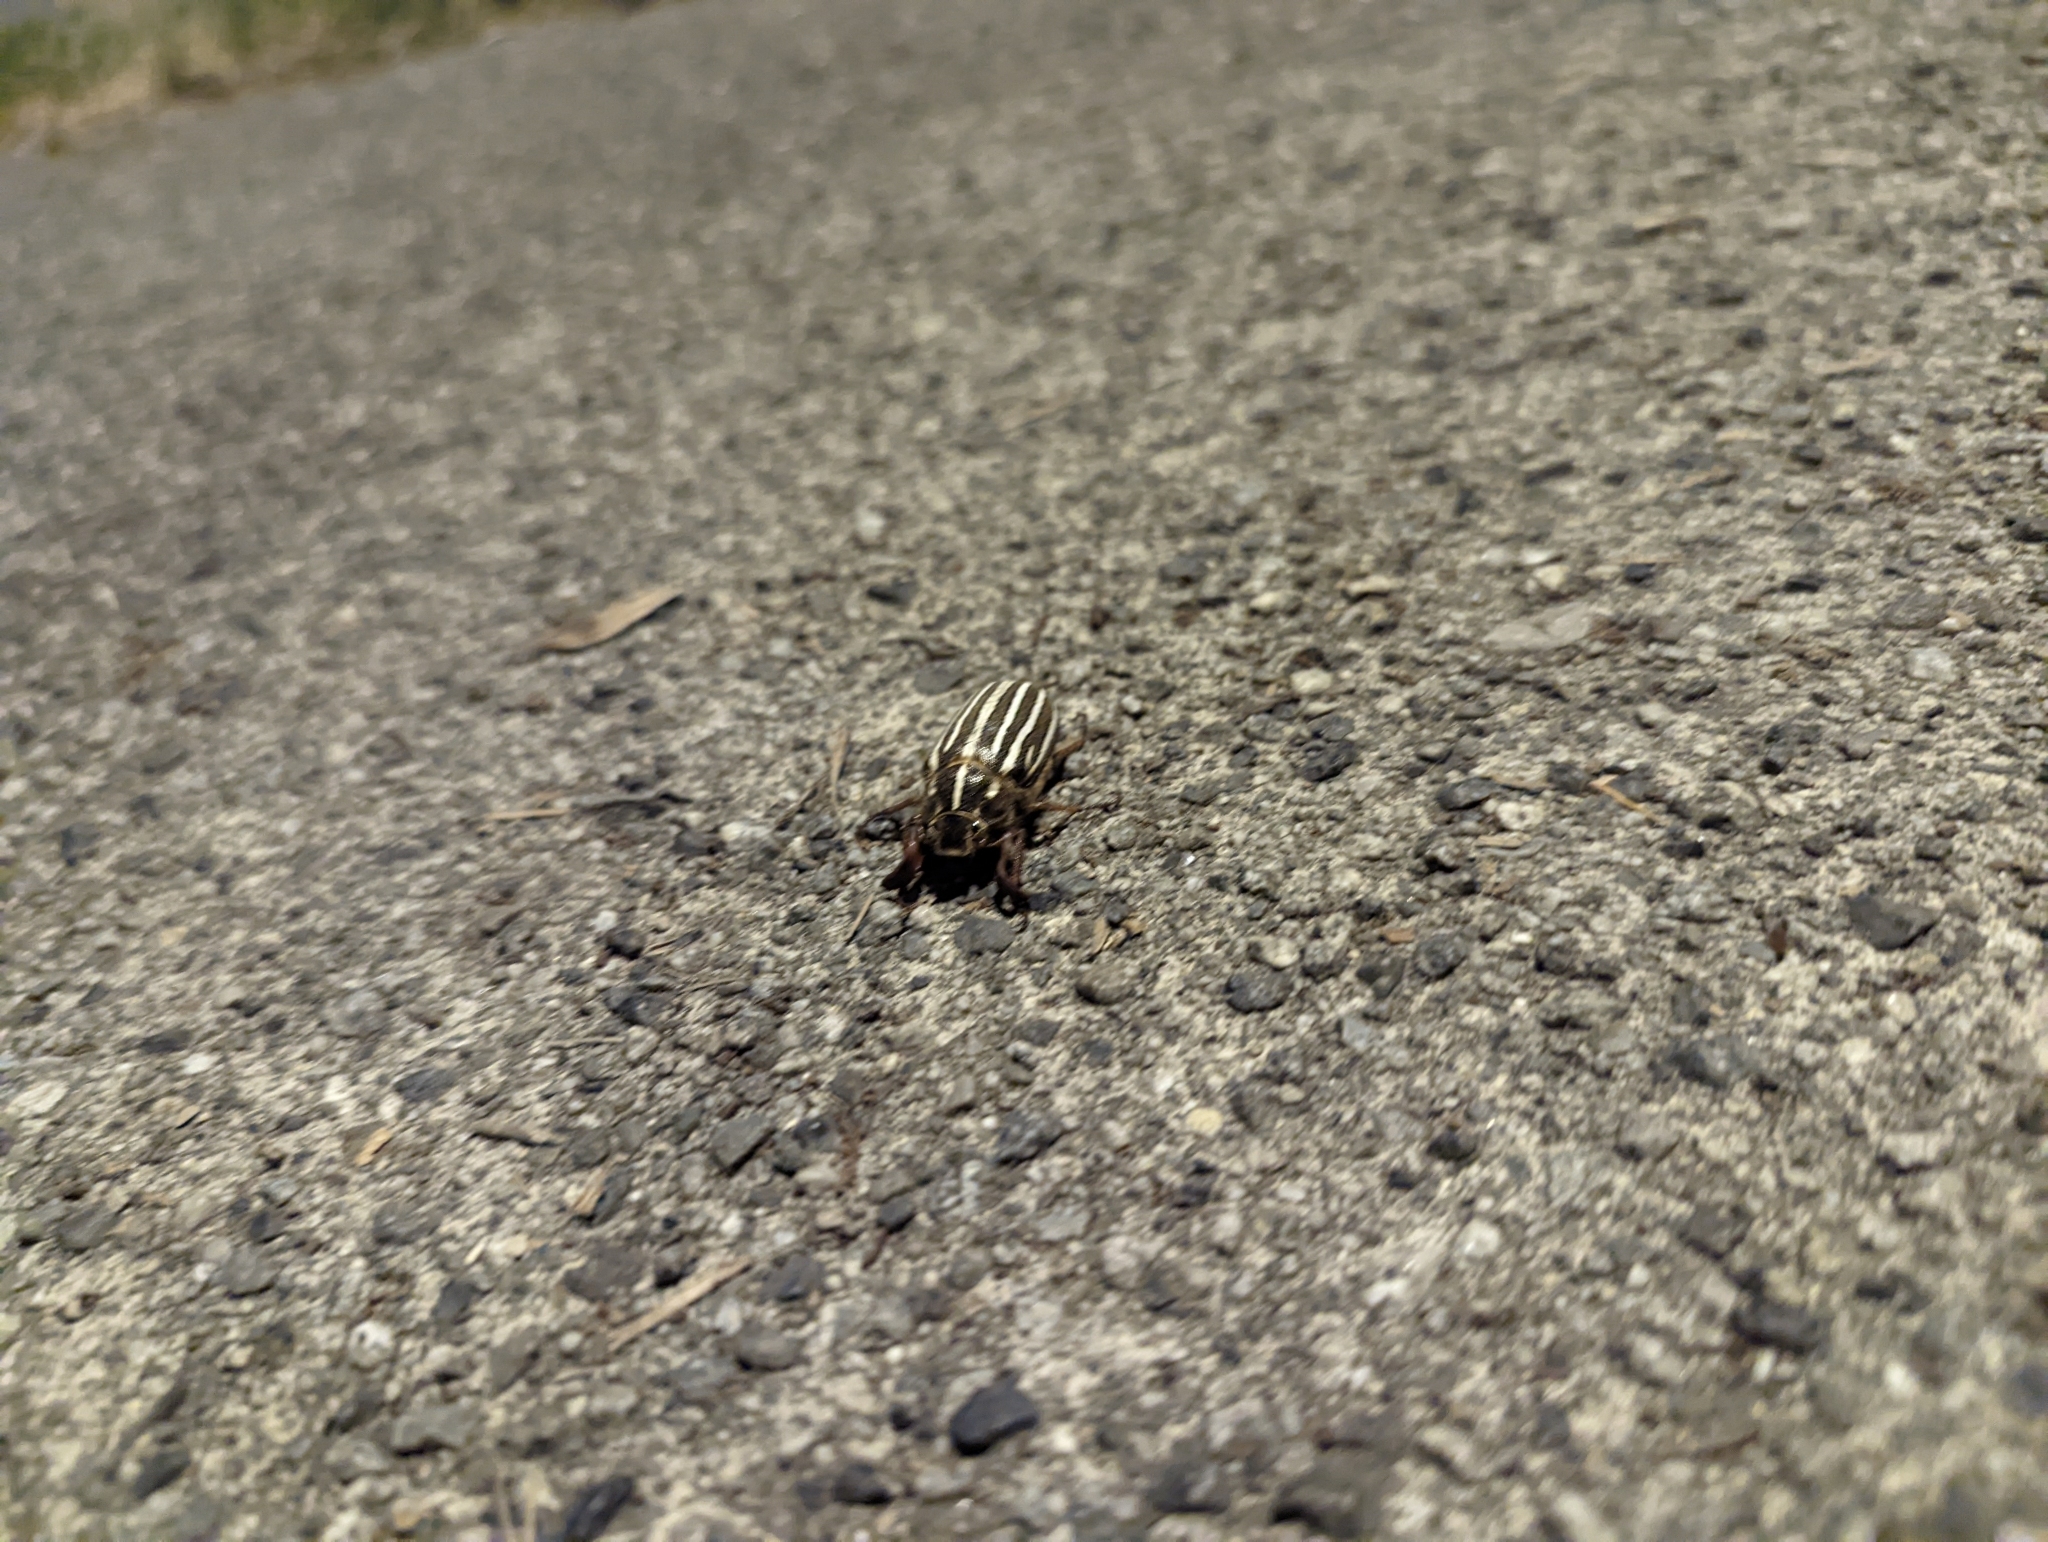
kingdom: Animalia
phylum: Arthropoda
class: Insecta
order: Coleoptera
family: Scarabaeidae
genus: Polyphylla
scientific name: Polyphylla crinita
